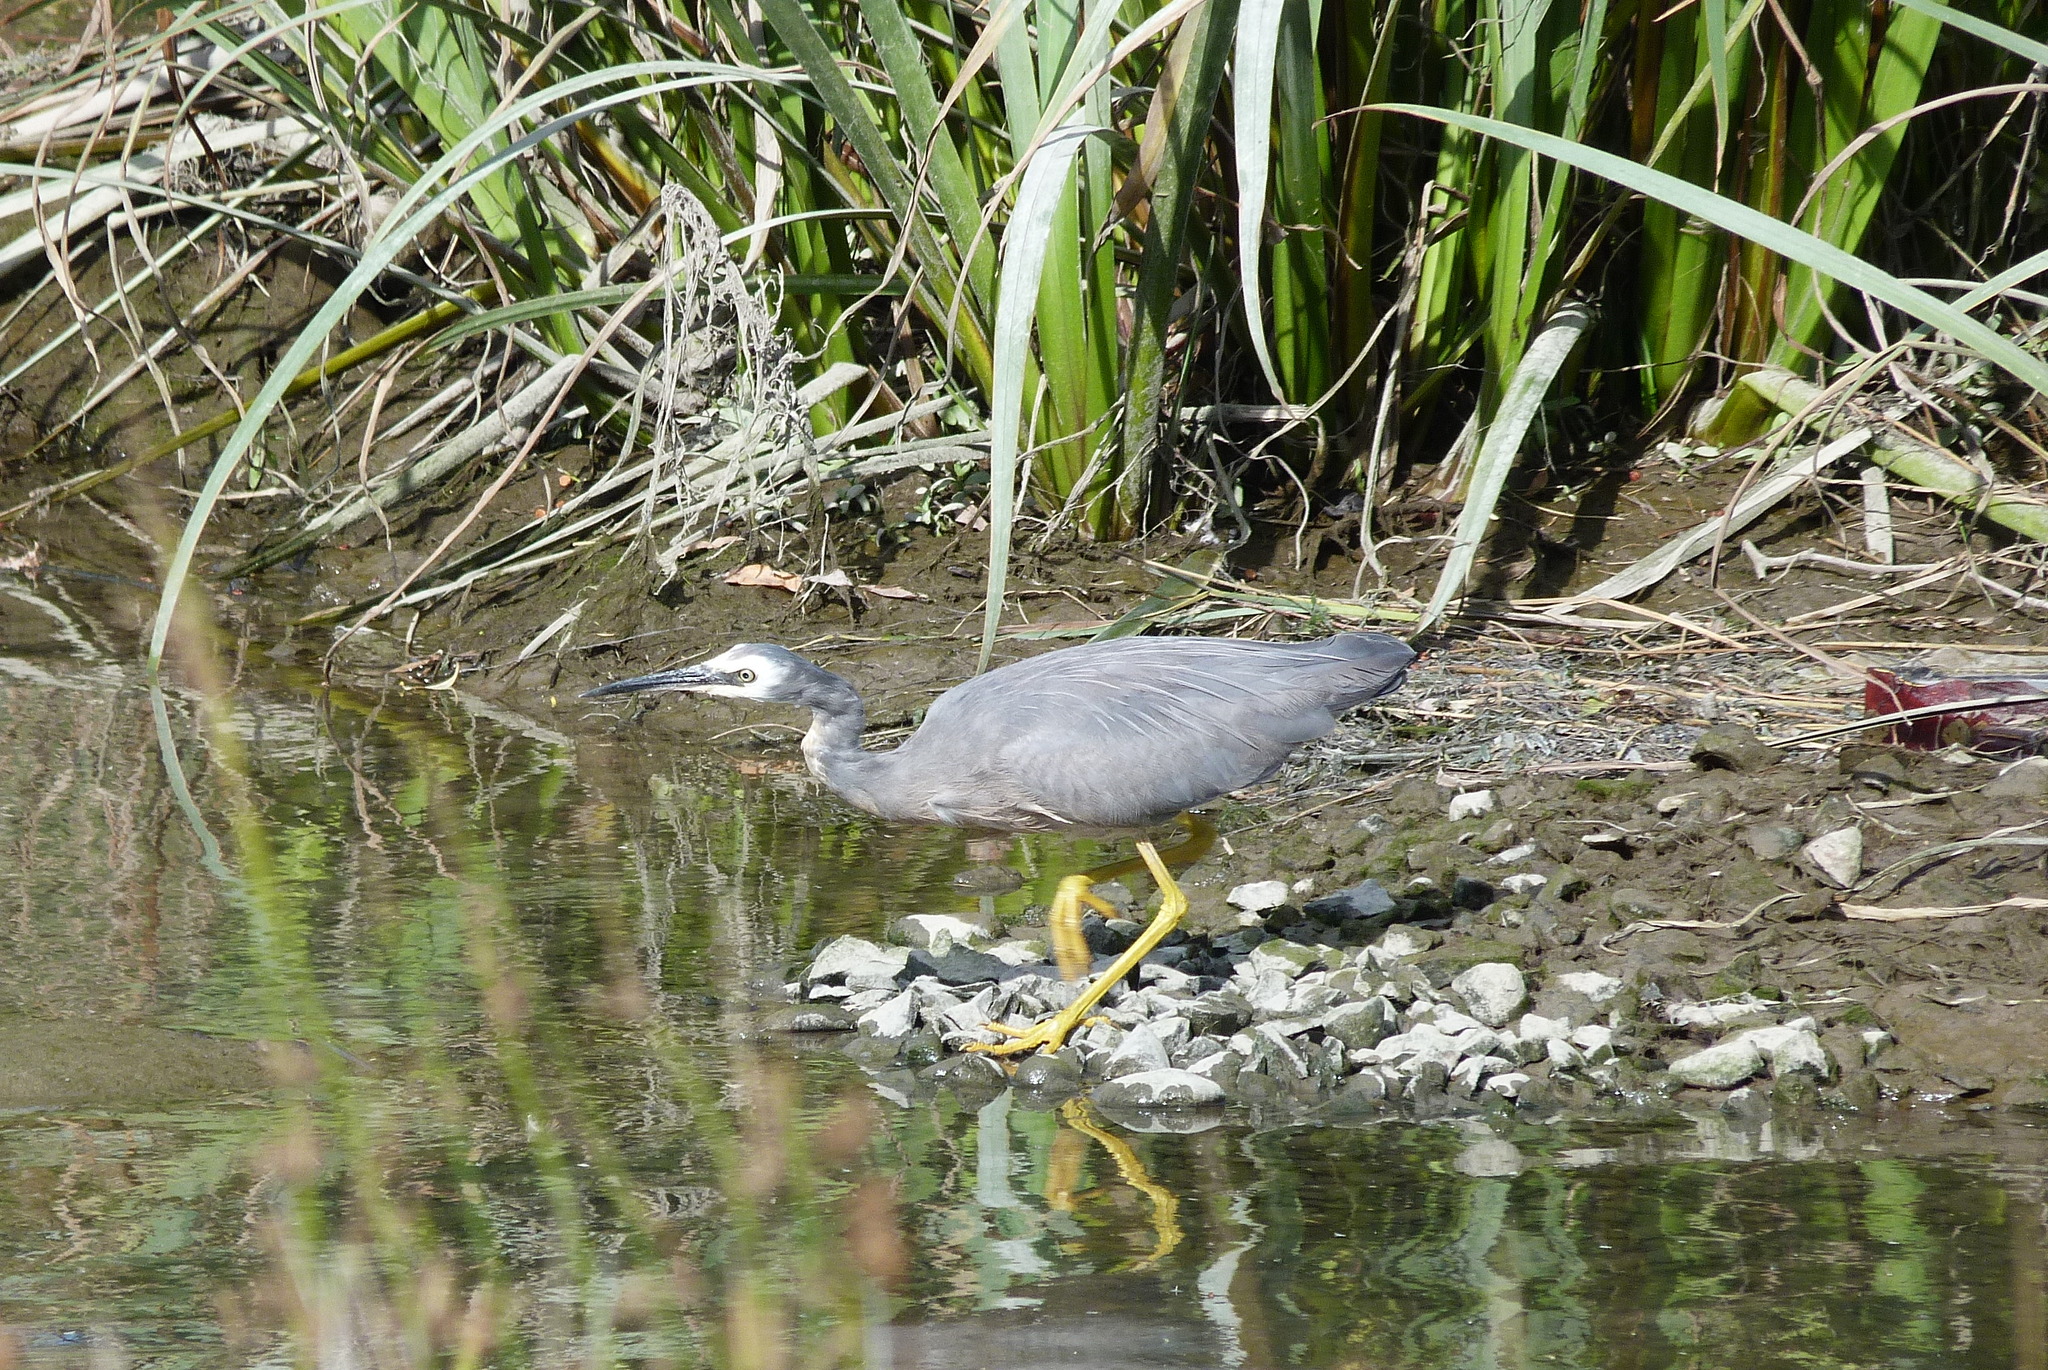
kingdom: Animalia
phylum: Chordata
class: Aves
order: Pelecaniformes
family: Ardeidae
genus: Egretta
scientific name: Egretta novaehollandiae
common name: White-faced heron
